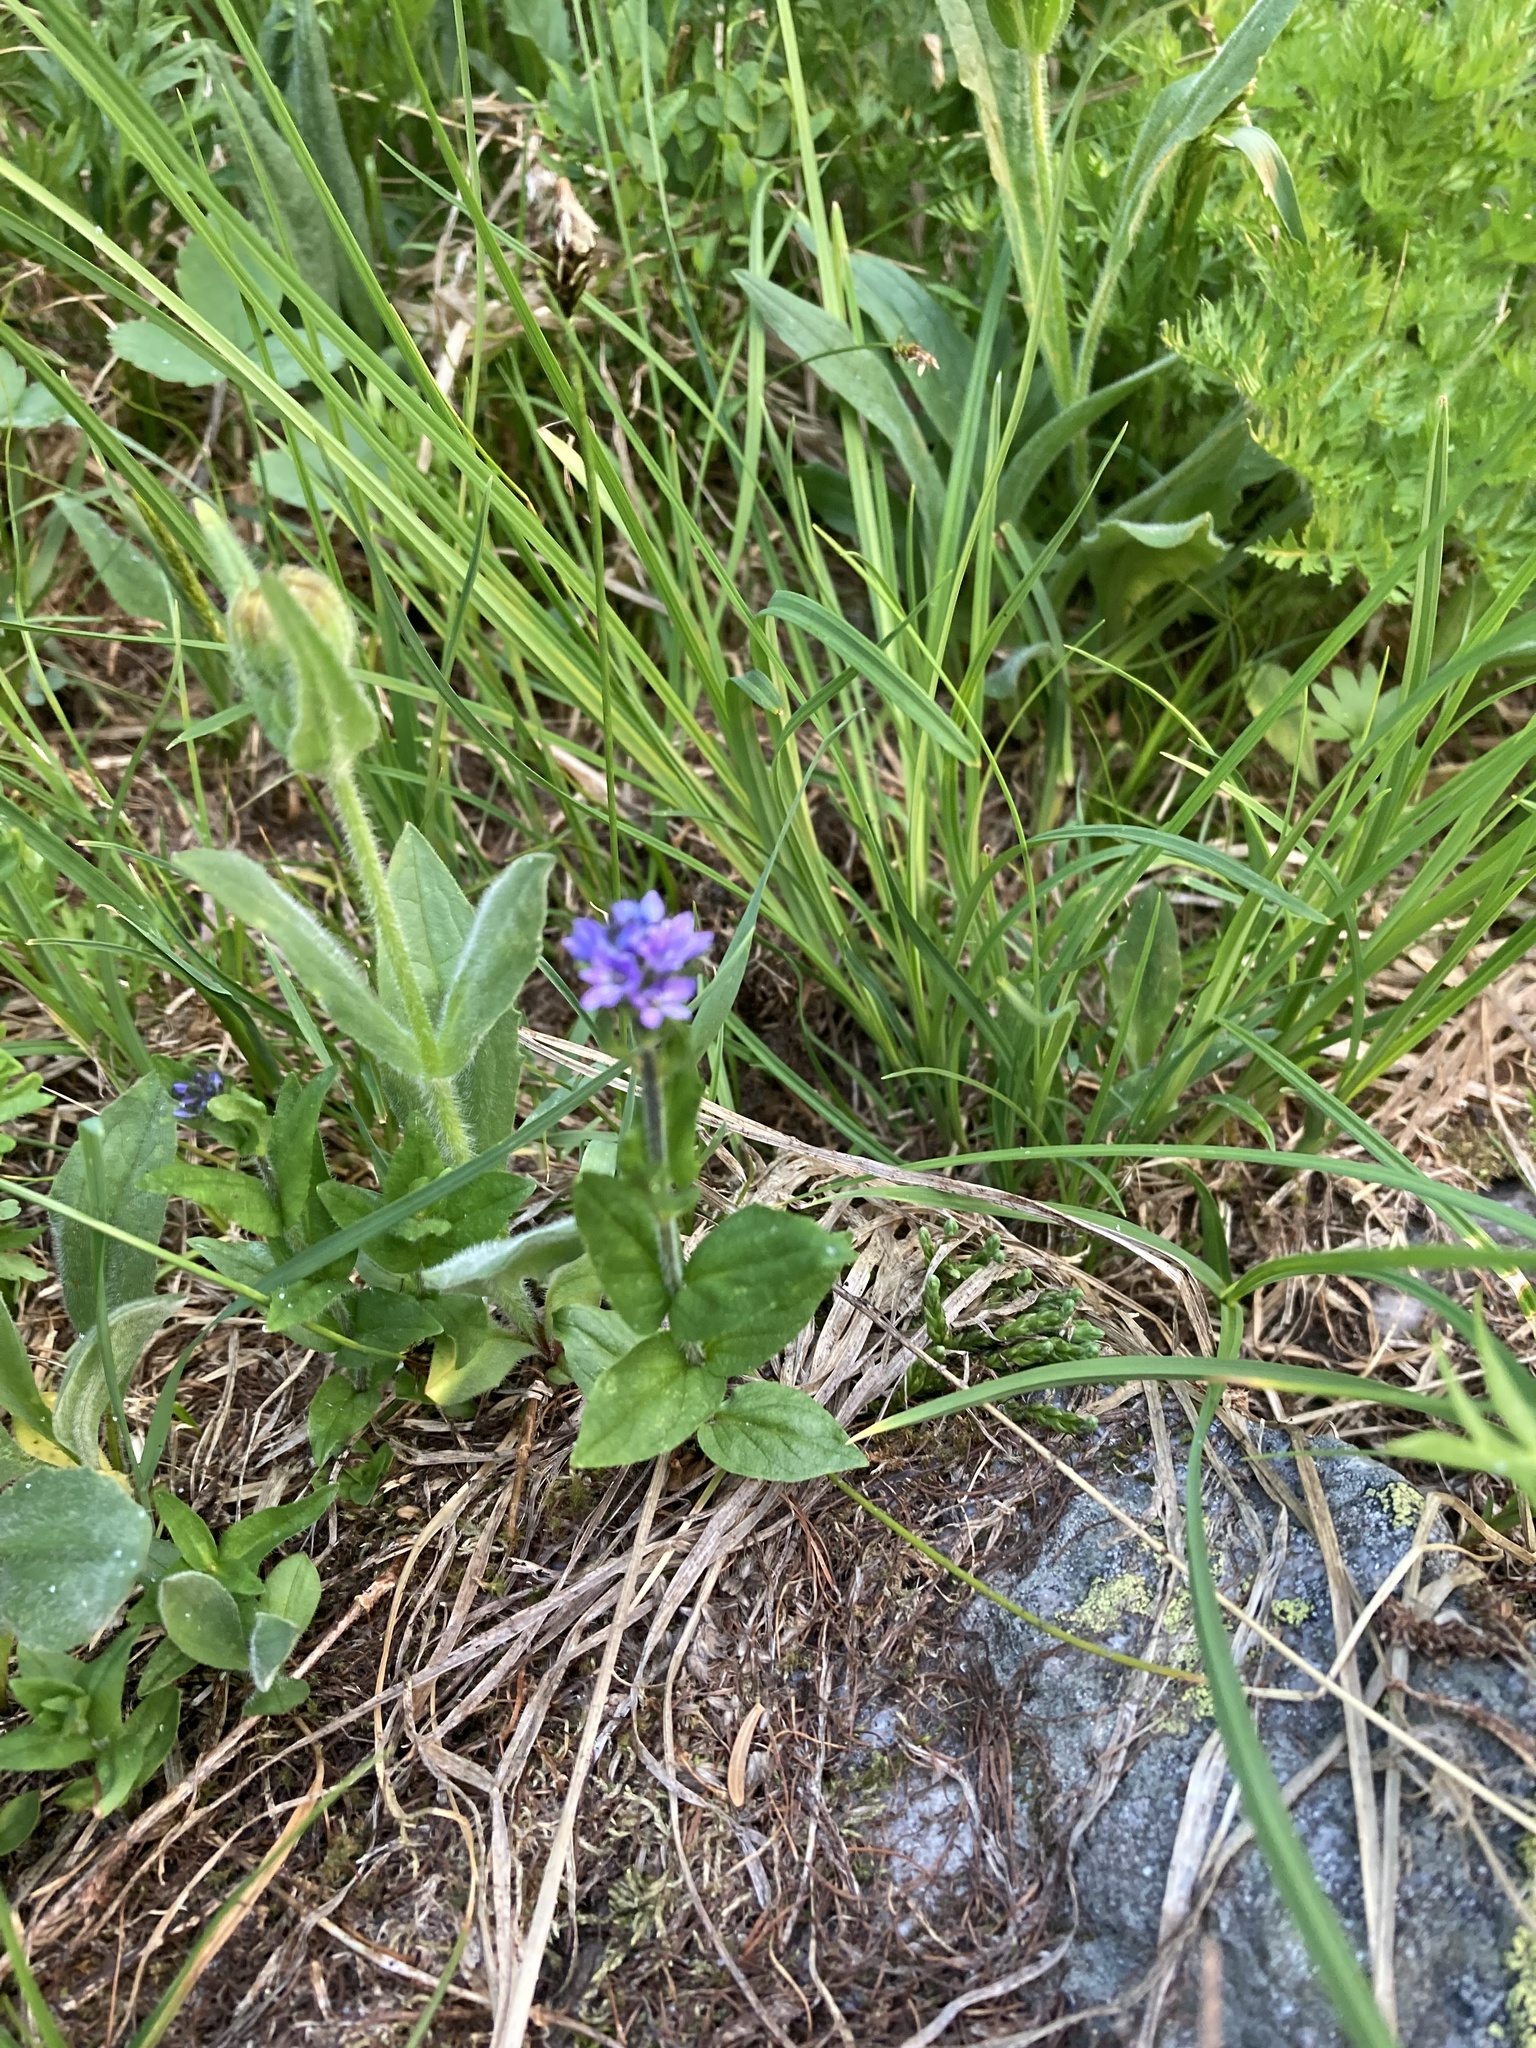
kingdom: Plantae
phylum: Tracheophyta
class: Magnoliopsida
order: Lamiales
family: Plantaginaceae
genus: Veronica
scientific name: Veronica wormskjoldii
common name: American alpine speedwell
